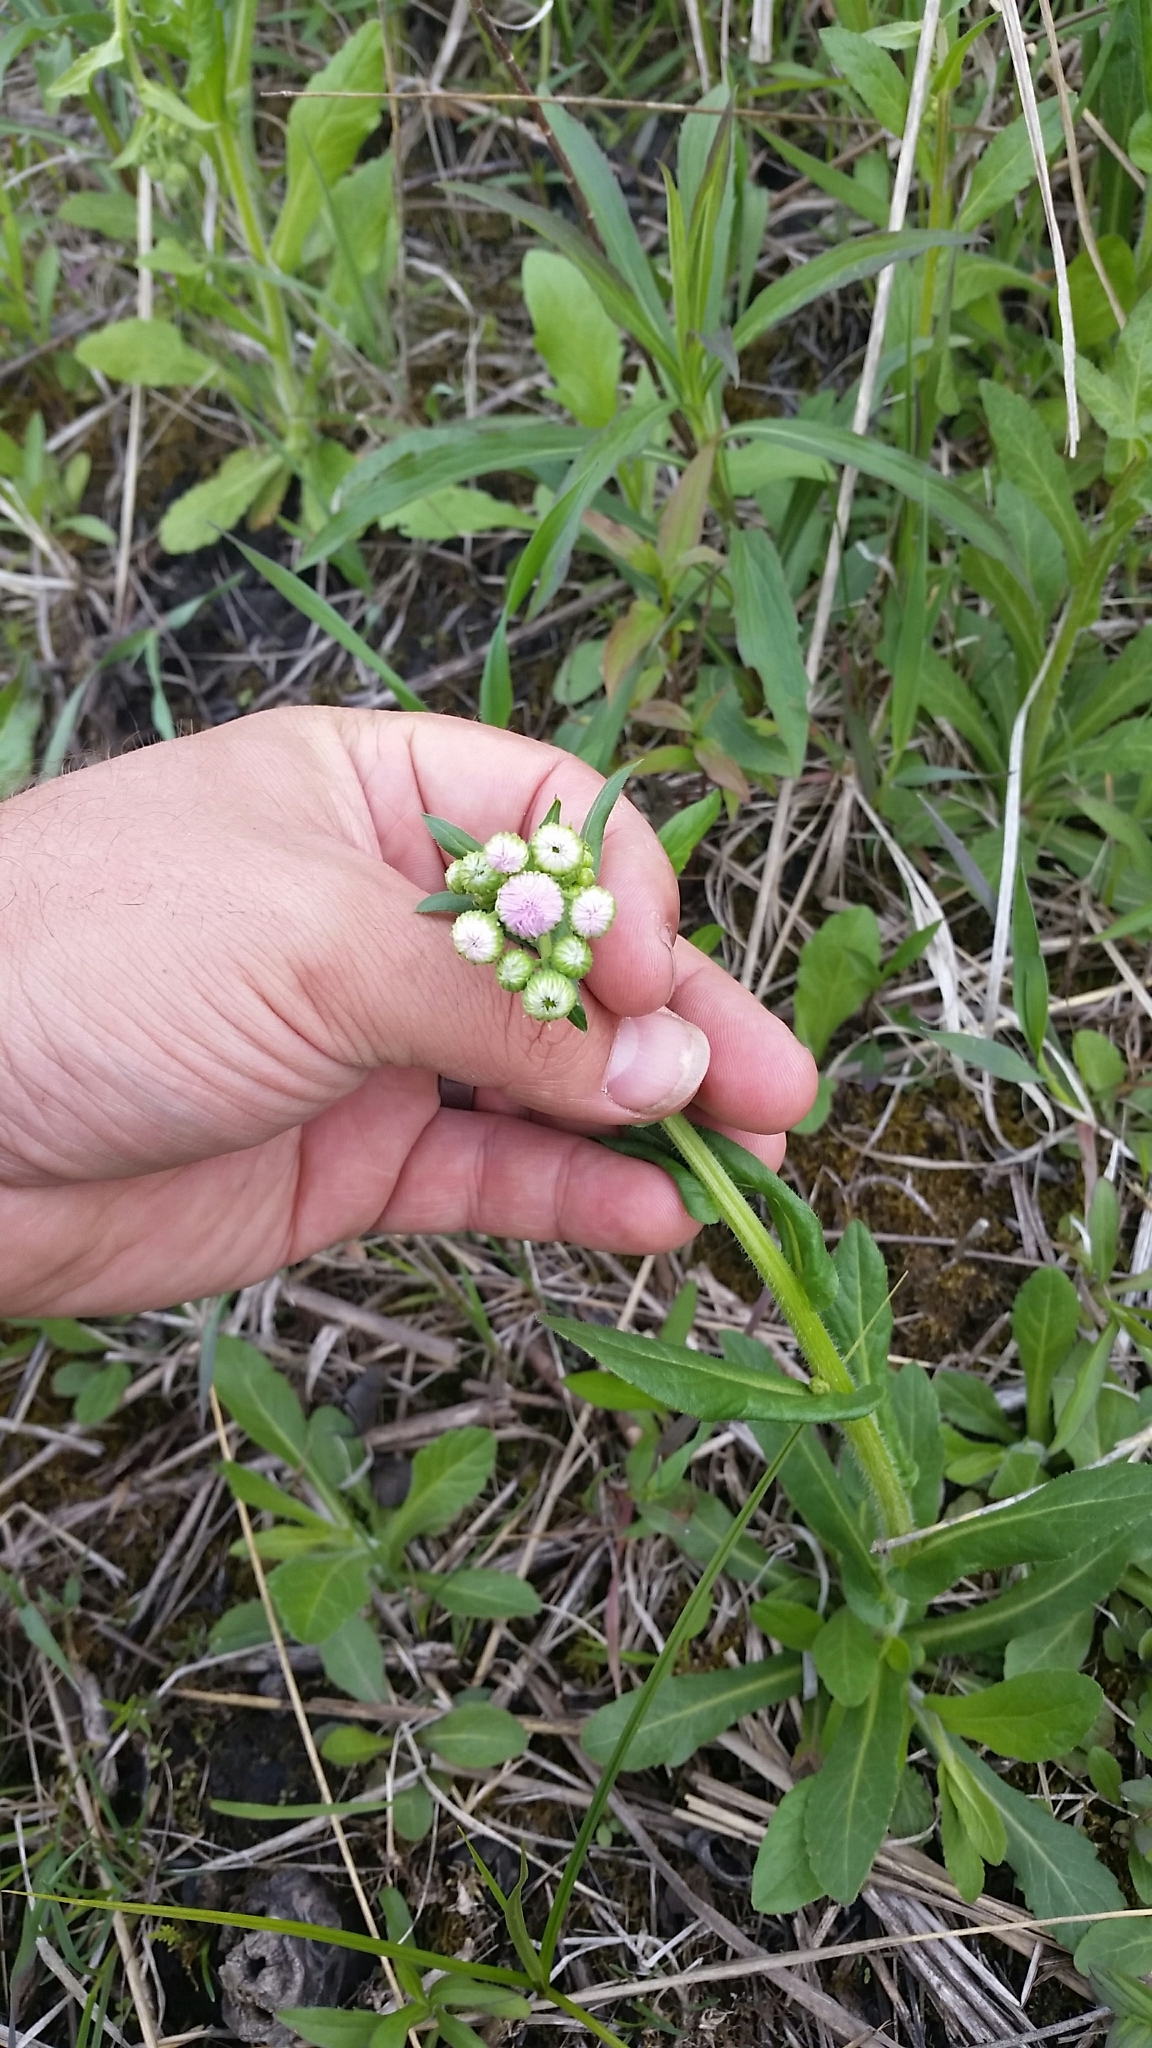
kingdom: Plantae
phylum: Tracheophyta
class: Magnoliopsida
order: Asterales
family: Asteraceae
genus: Erigeron
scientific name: Erigeron philadelphicus
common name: Robin's-plantain
